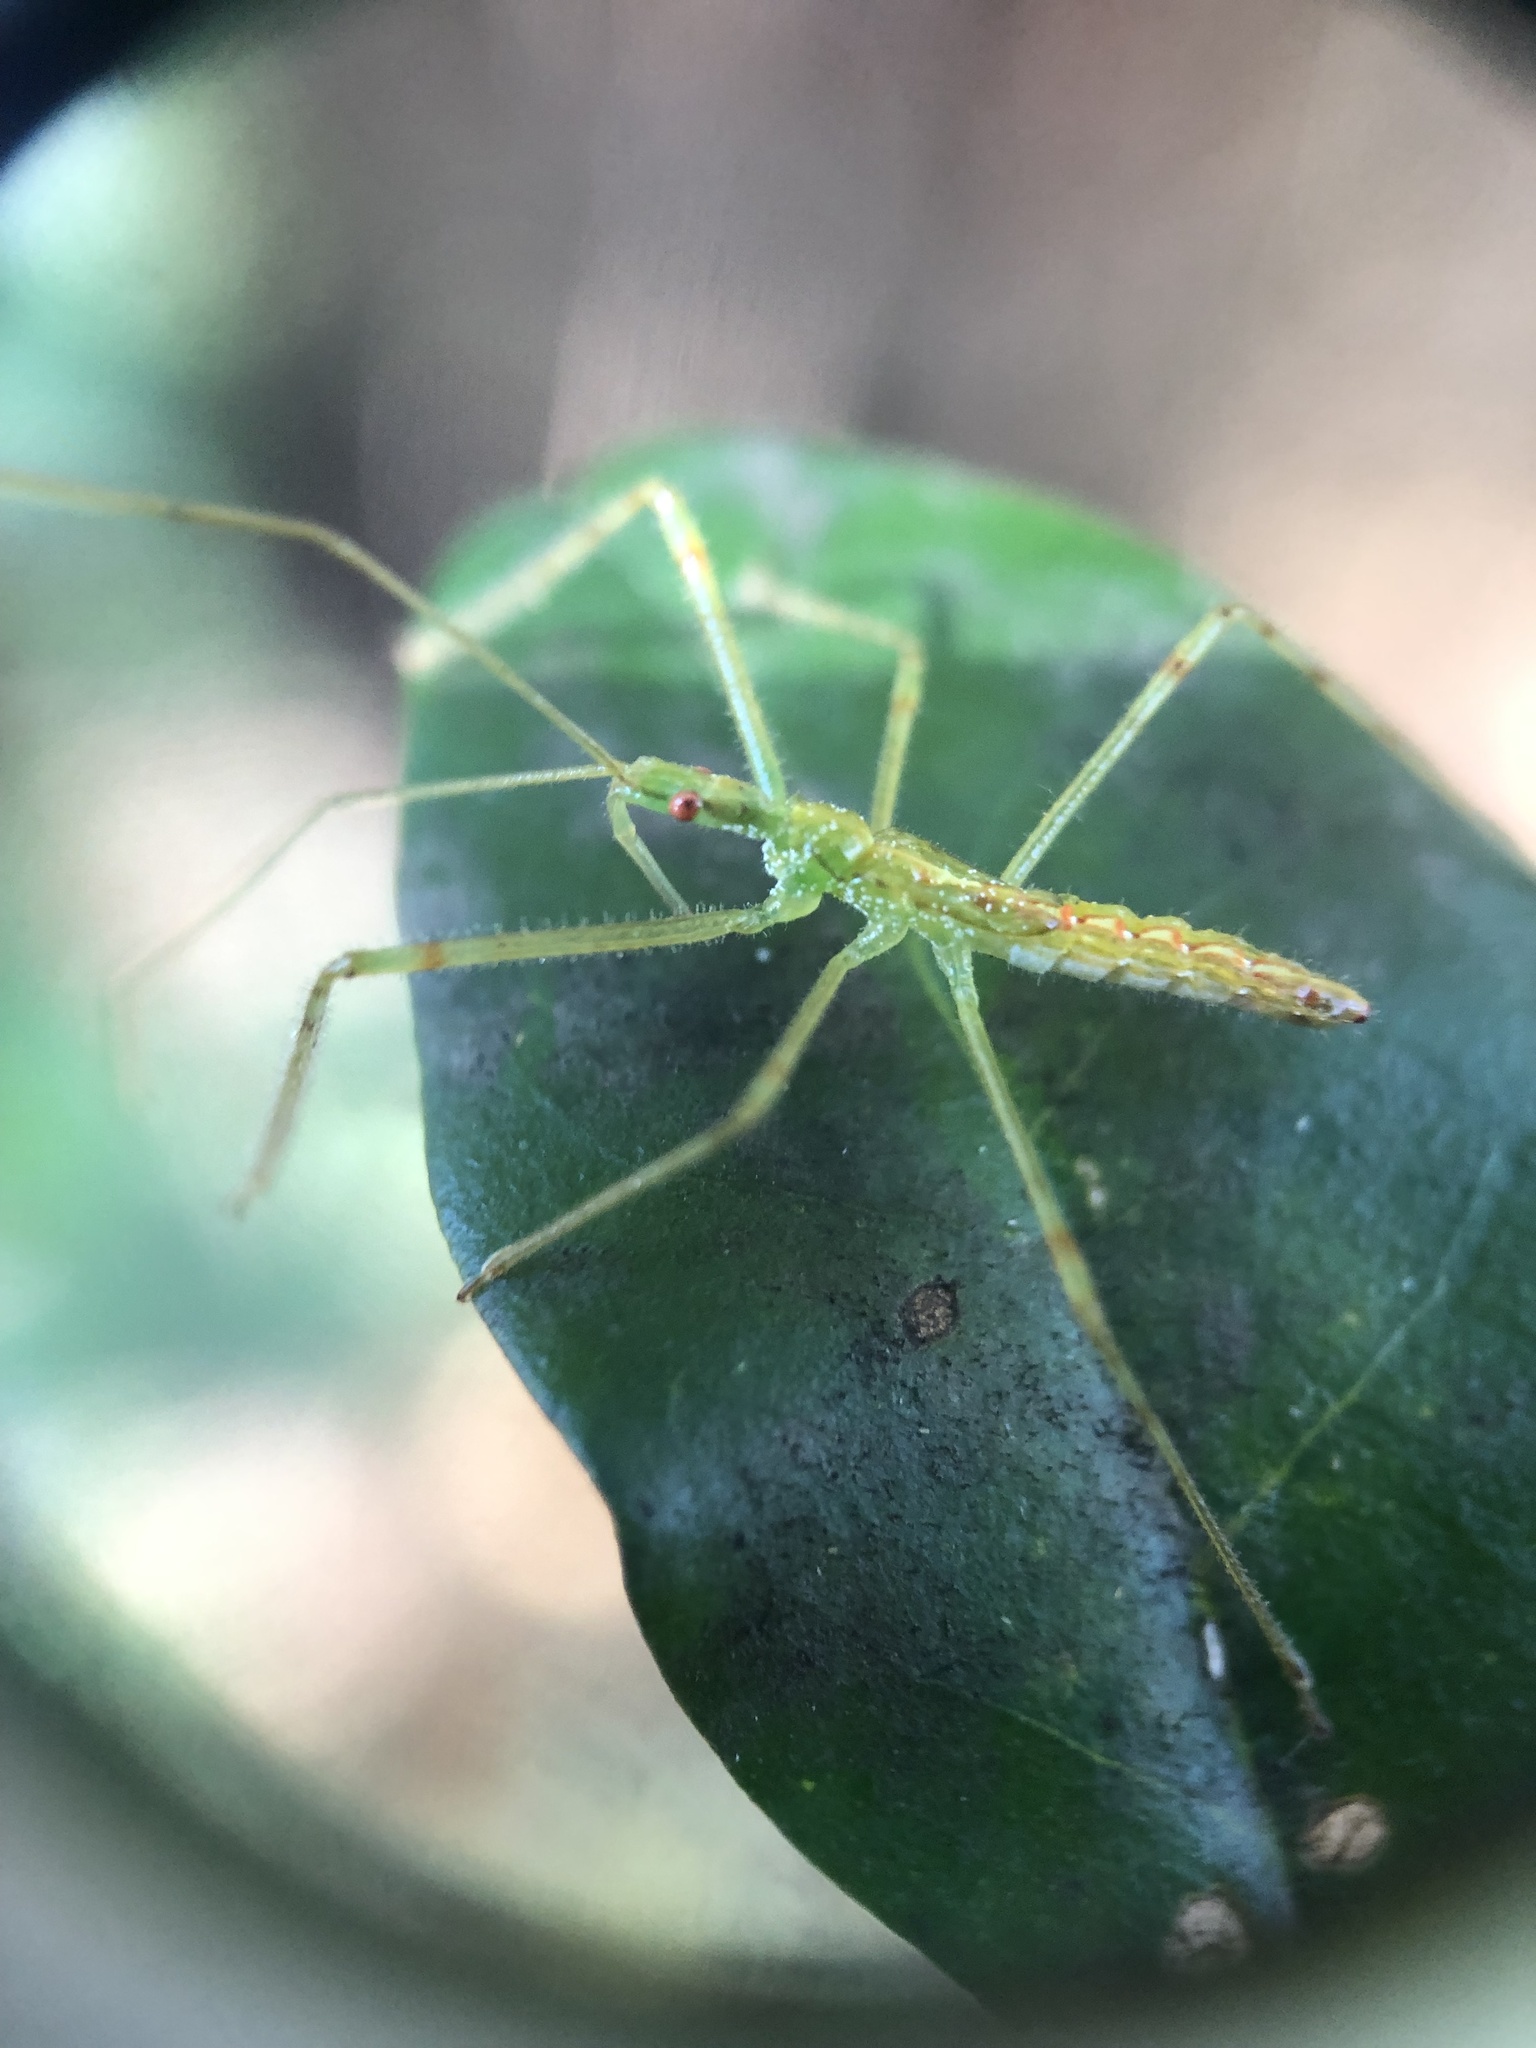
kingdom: Animalia
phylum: Arthropoda
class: Insecta
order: Hemiptera
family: Reduviidae
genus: Zelus
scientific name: Zelus luridus
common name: Pale green assassin bug
